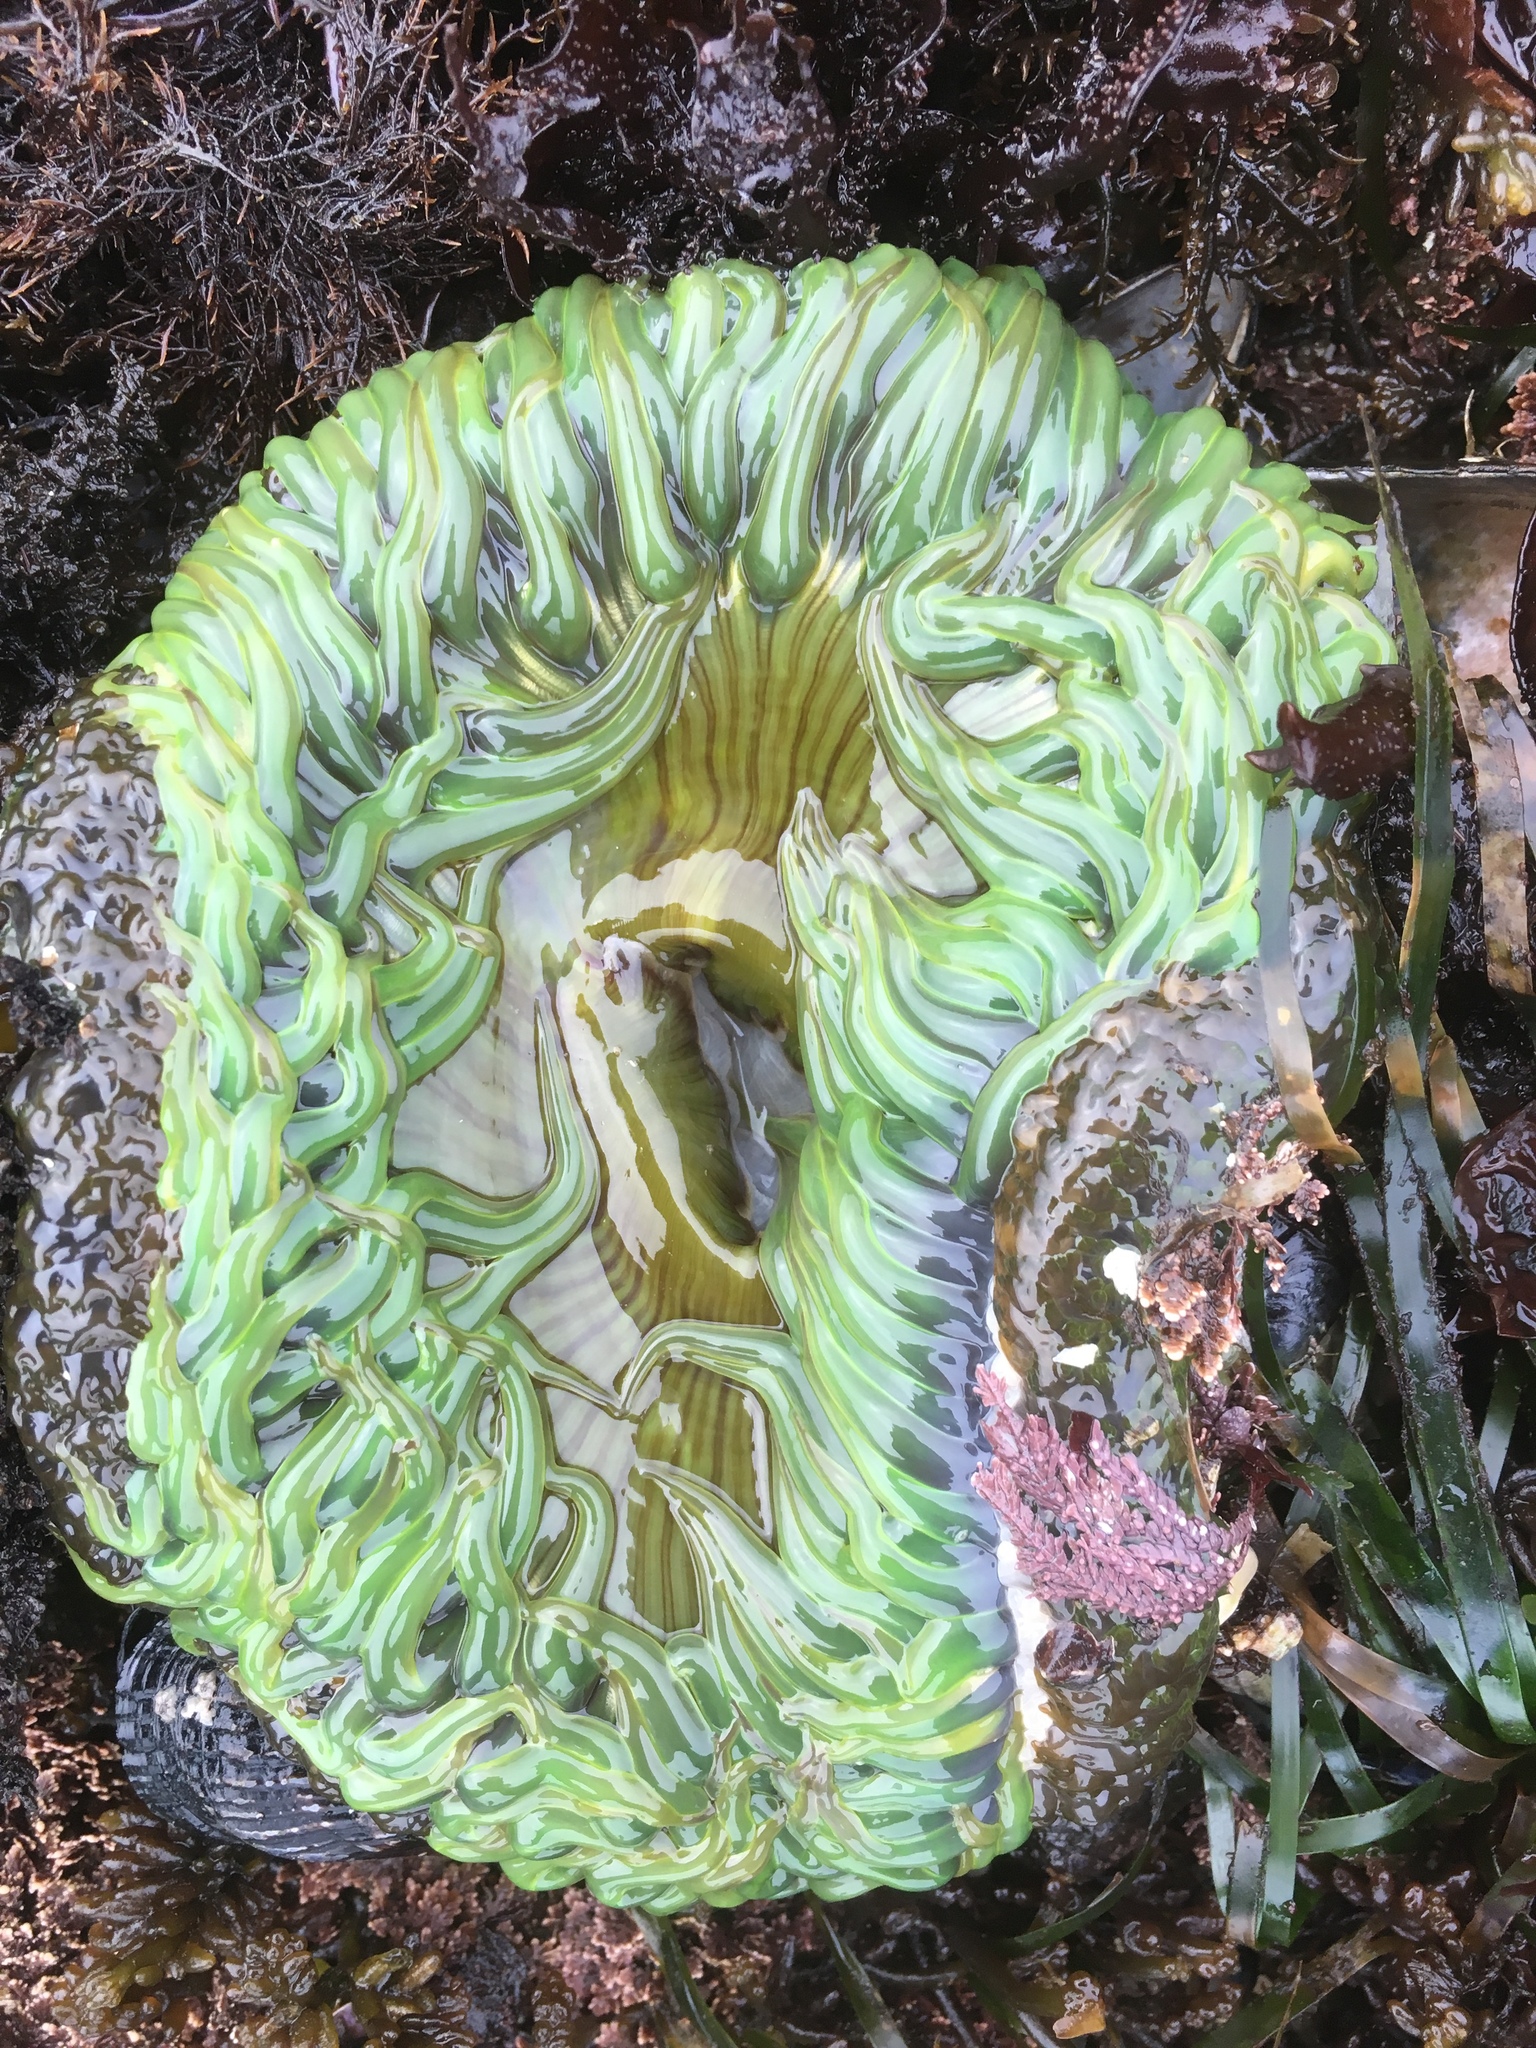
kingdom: Animalia
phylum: Cnidaria
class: Anthozoa
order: Actiniaria
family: Actiniidae
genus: Anthopleura
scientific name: Anthopleura sola
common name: Sun anemone
